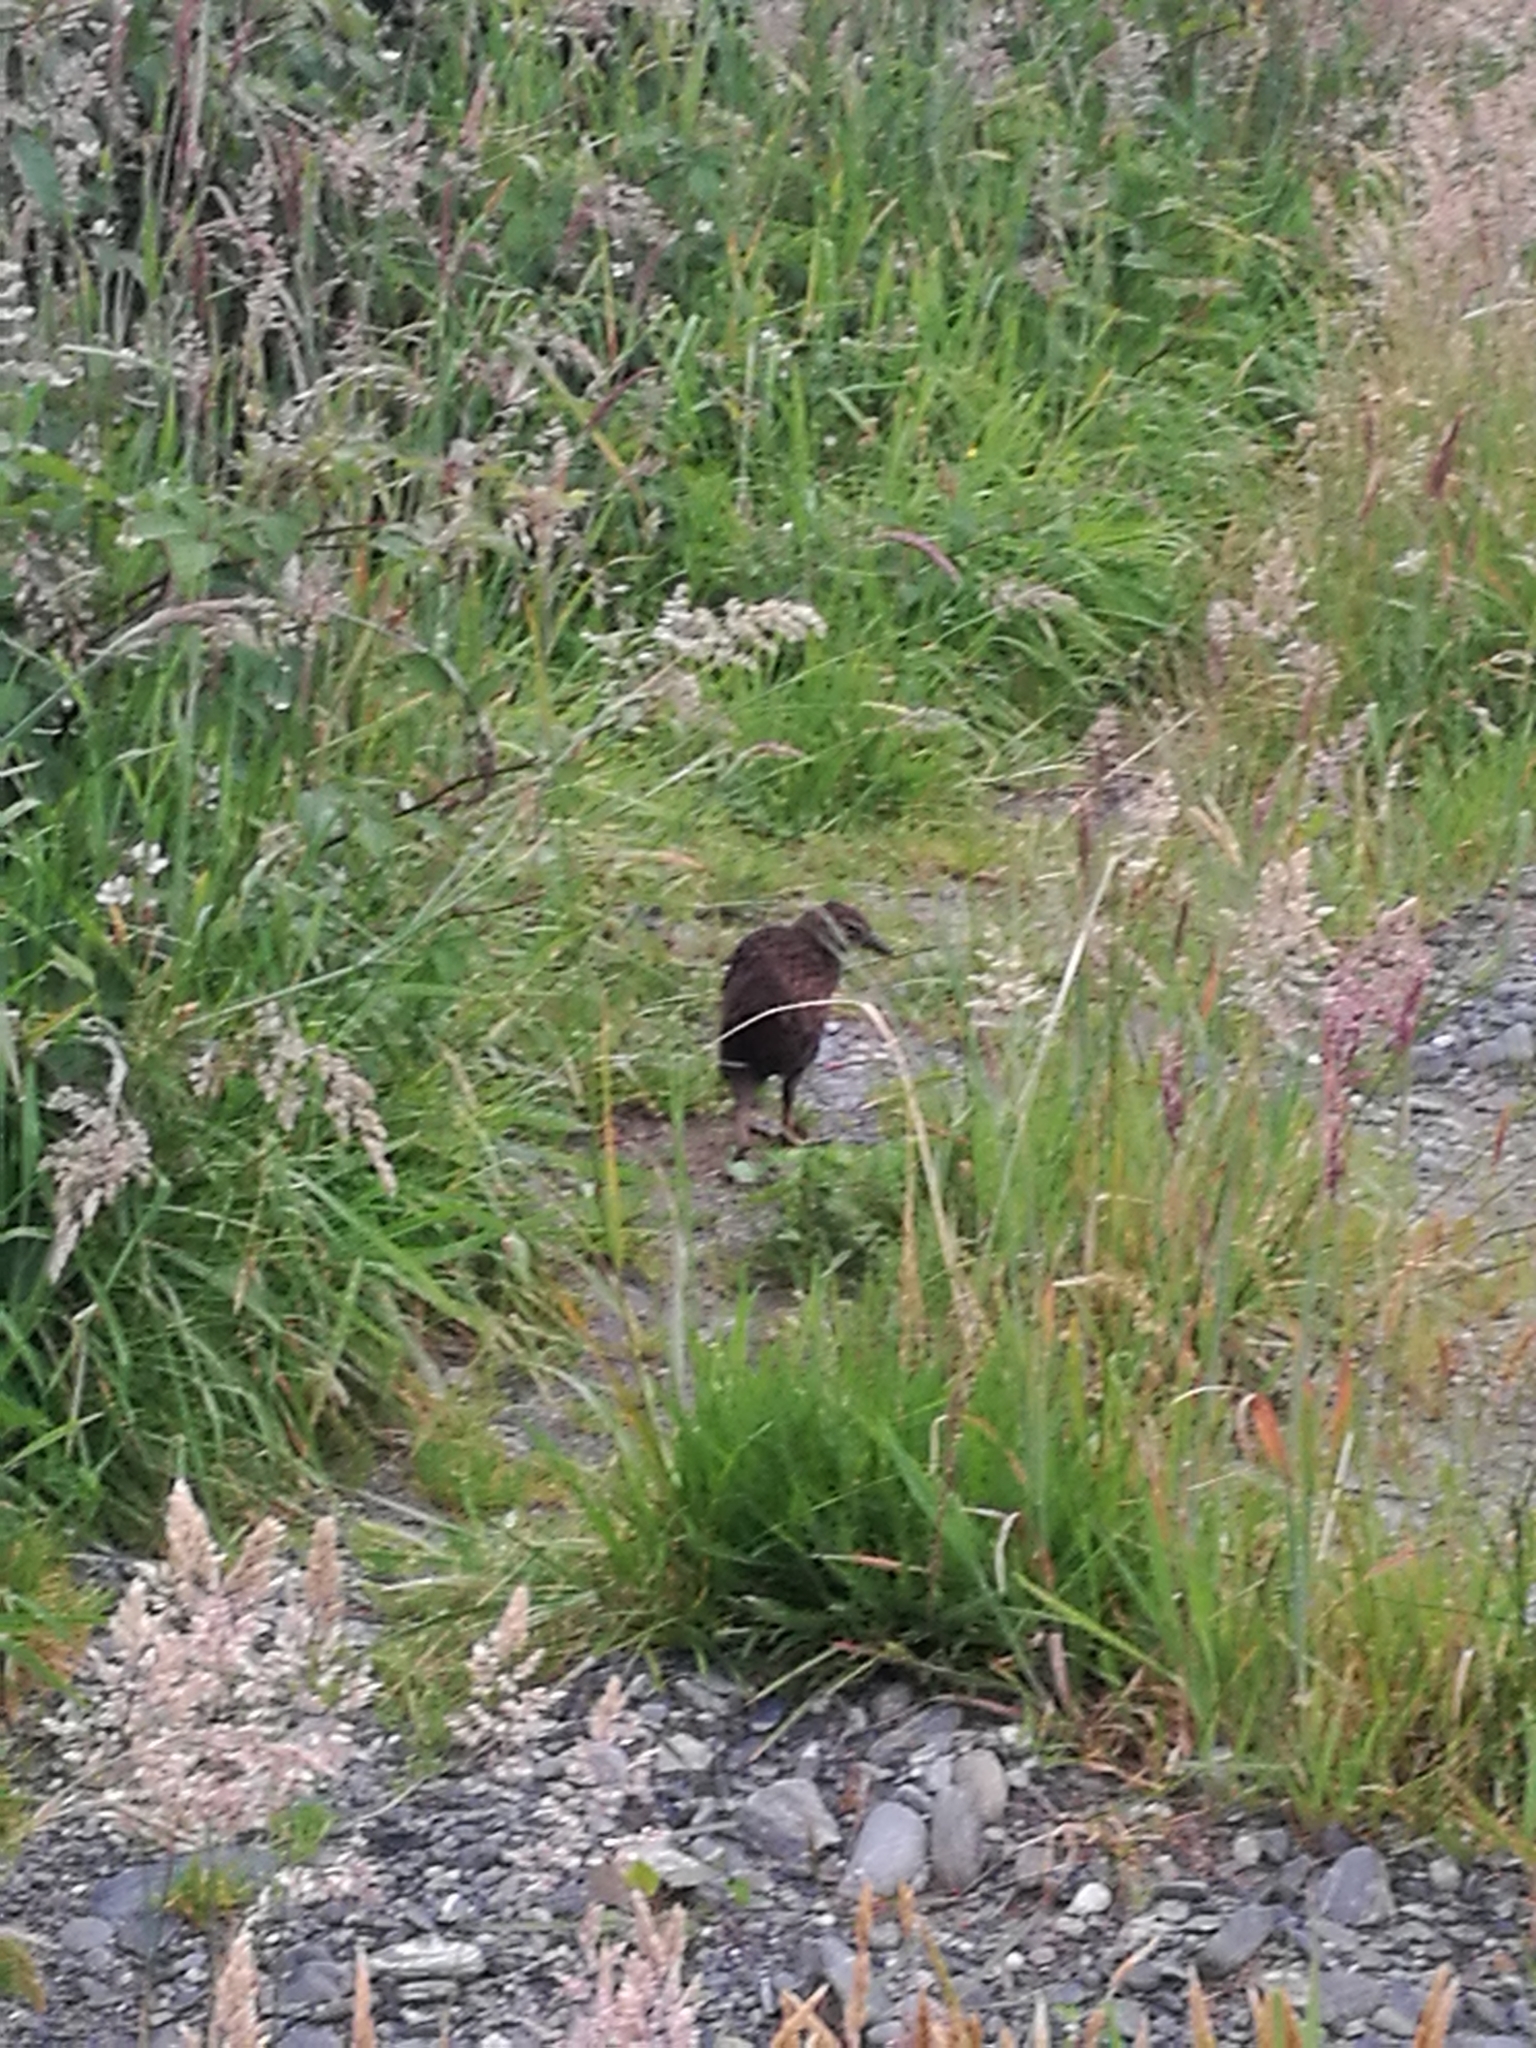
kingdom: Animalia
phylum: Chordata
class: Aves
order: Gruiformes
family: Rallidae
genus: Gallirallus
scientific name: Gallirallus australis
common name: Weka
